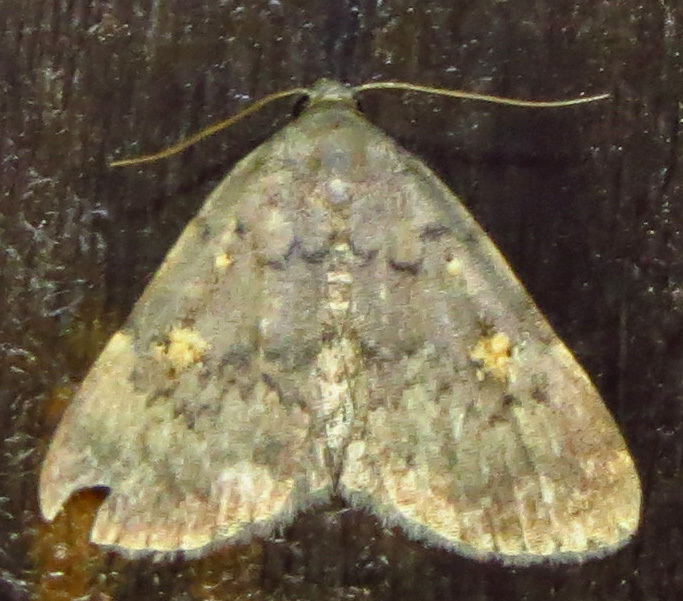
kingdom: Animalia
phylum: Arthropoda
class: Insecta
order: Lepidoptera
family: Erebidae
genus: Idia
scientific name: Idia aemula
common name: Common idia moth
